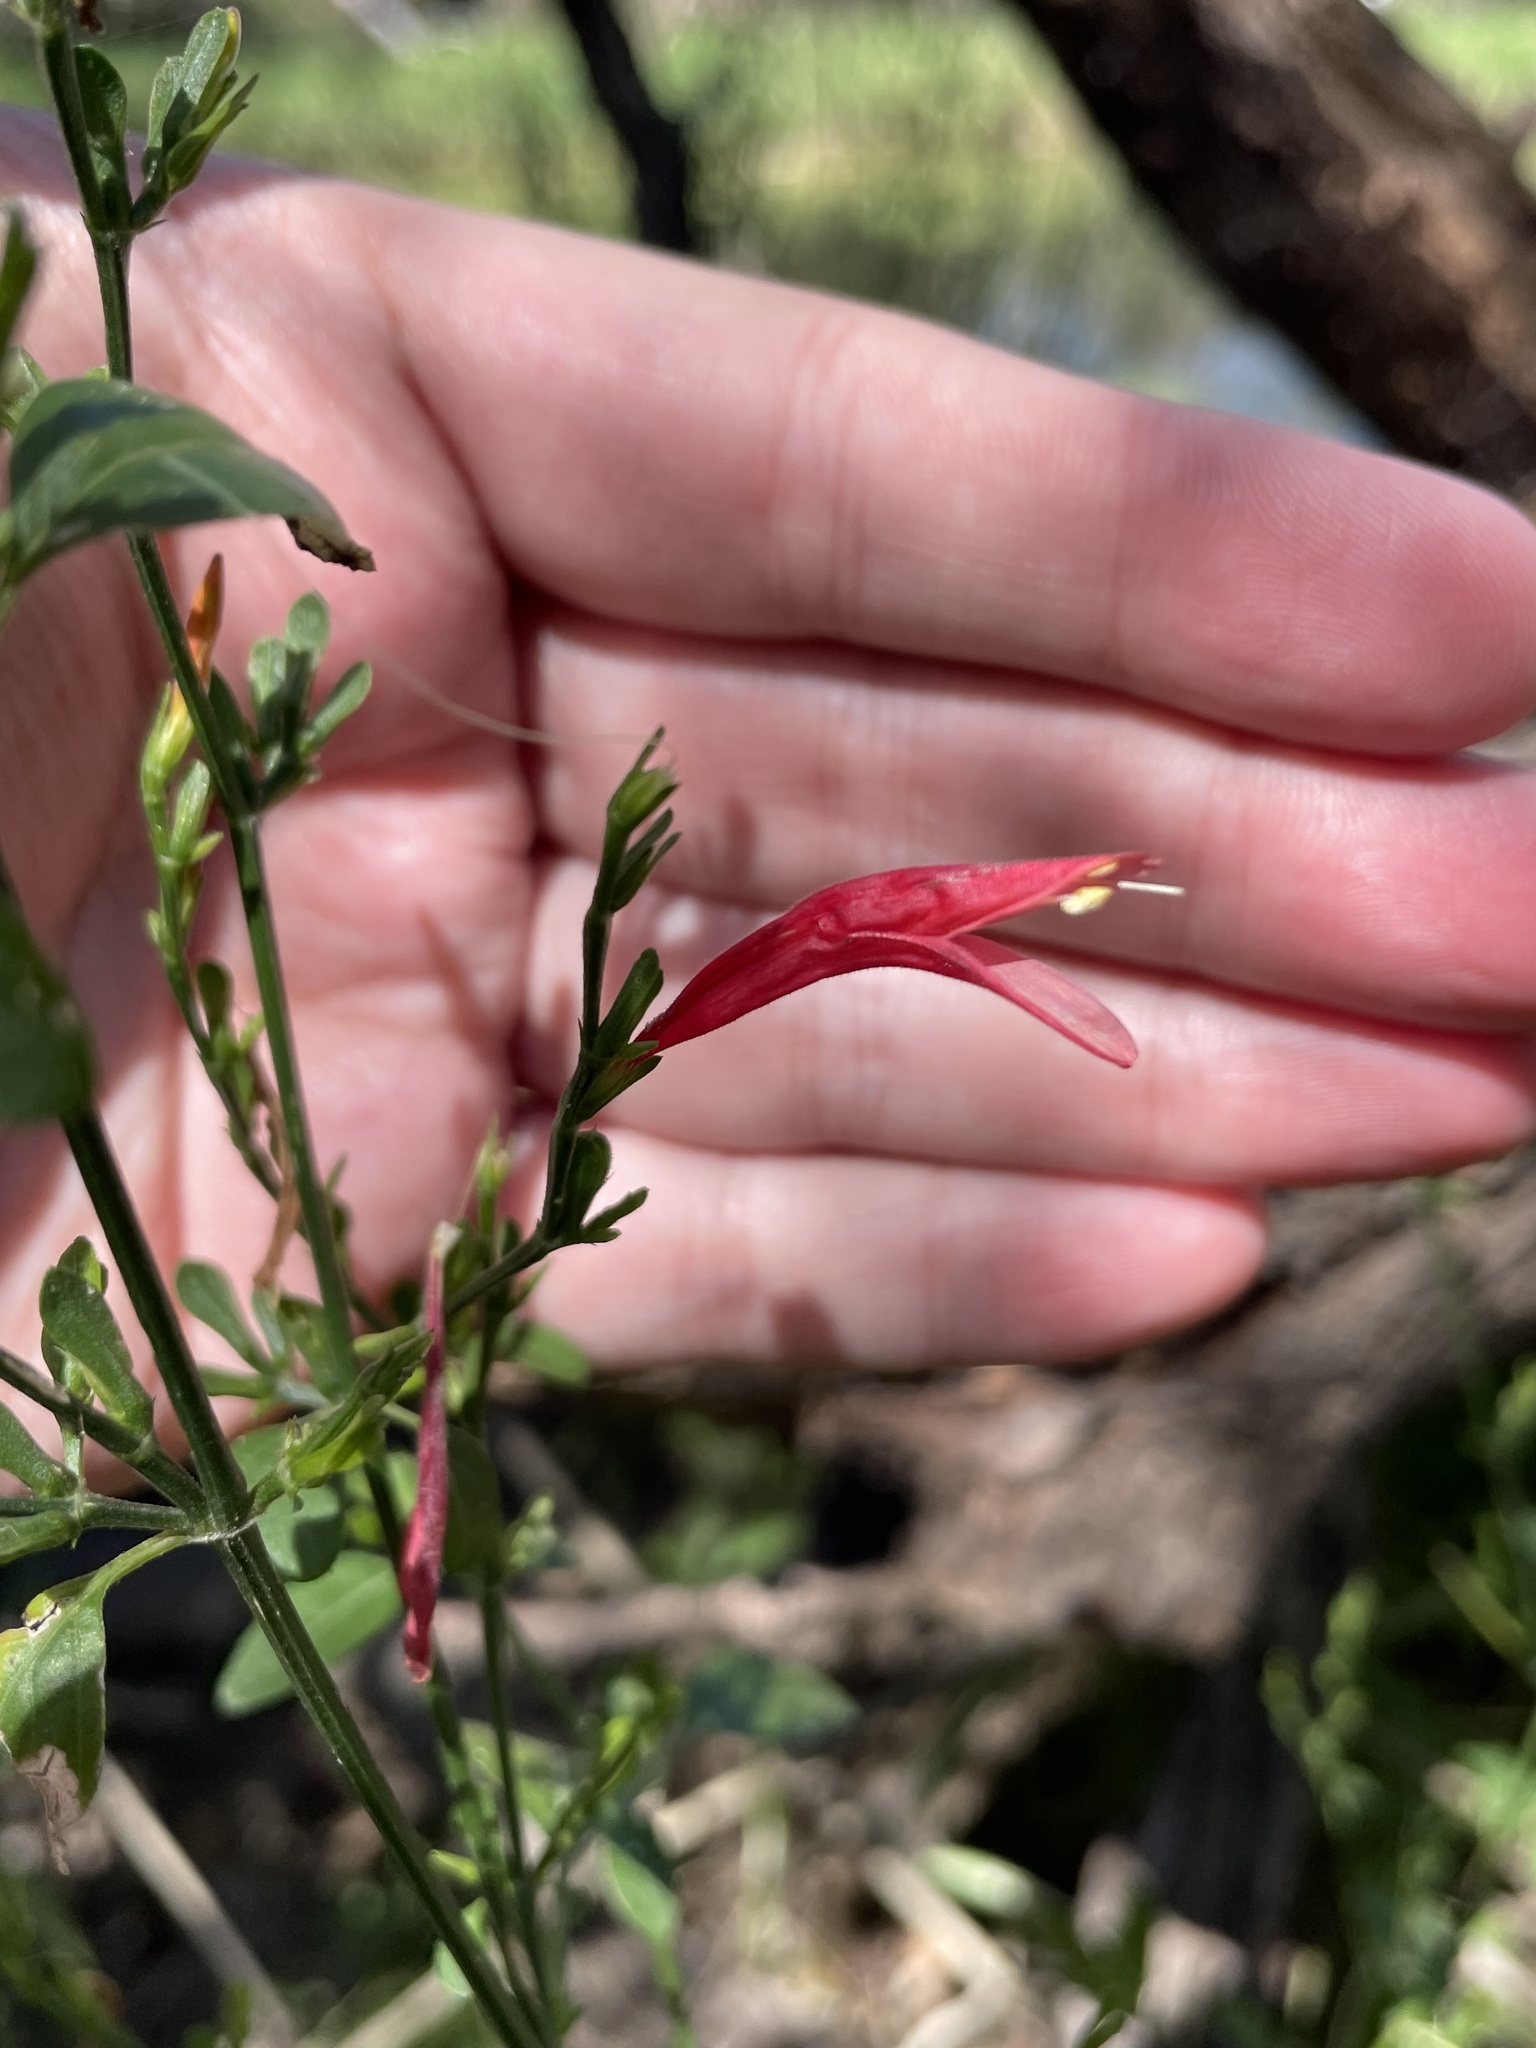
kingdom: Plantae
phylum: Tracheophyta
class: Magnoliopsida
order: Lamiales
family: Acanthaceae
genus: Dicliptera
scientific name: Dicliptera sexangularis
